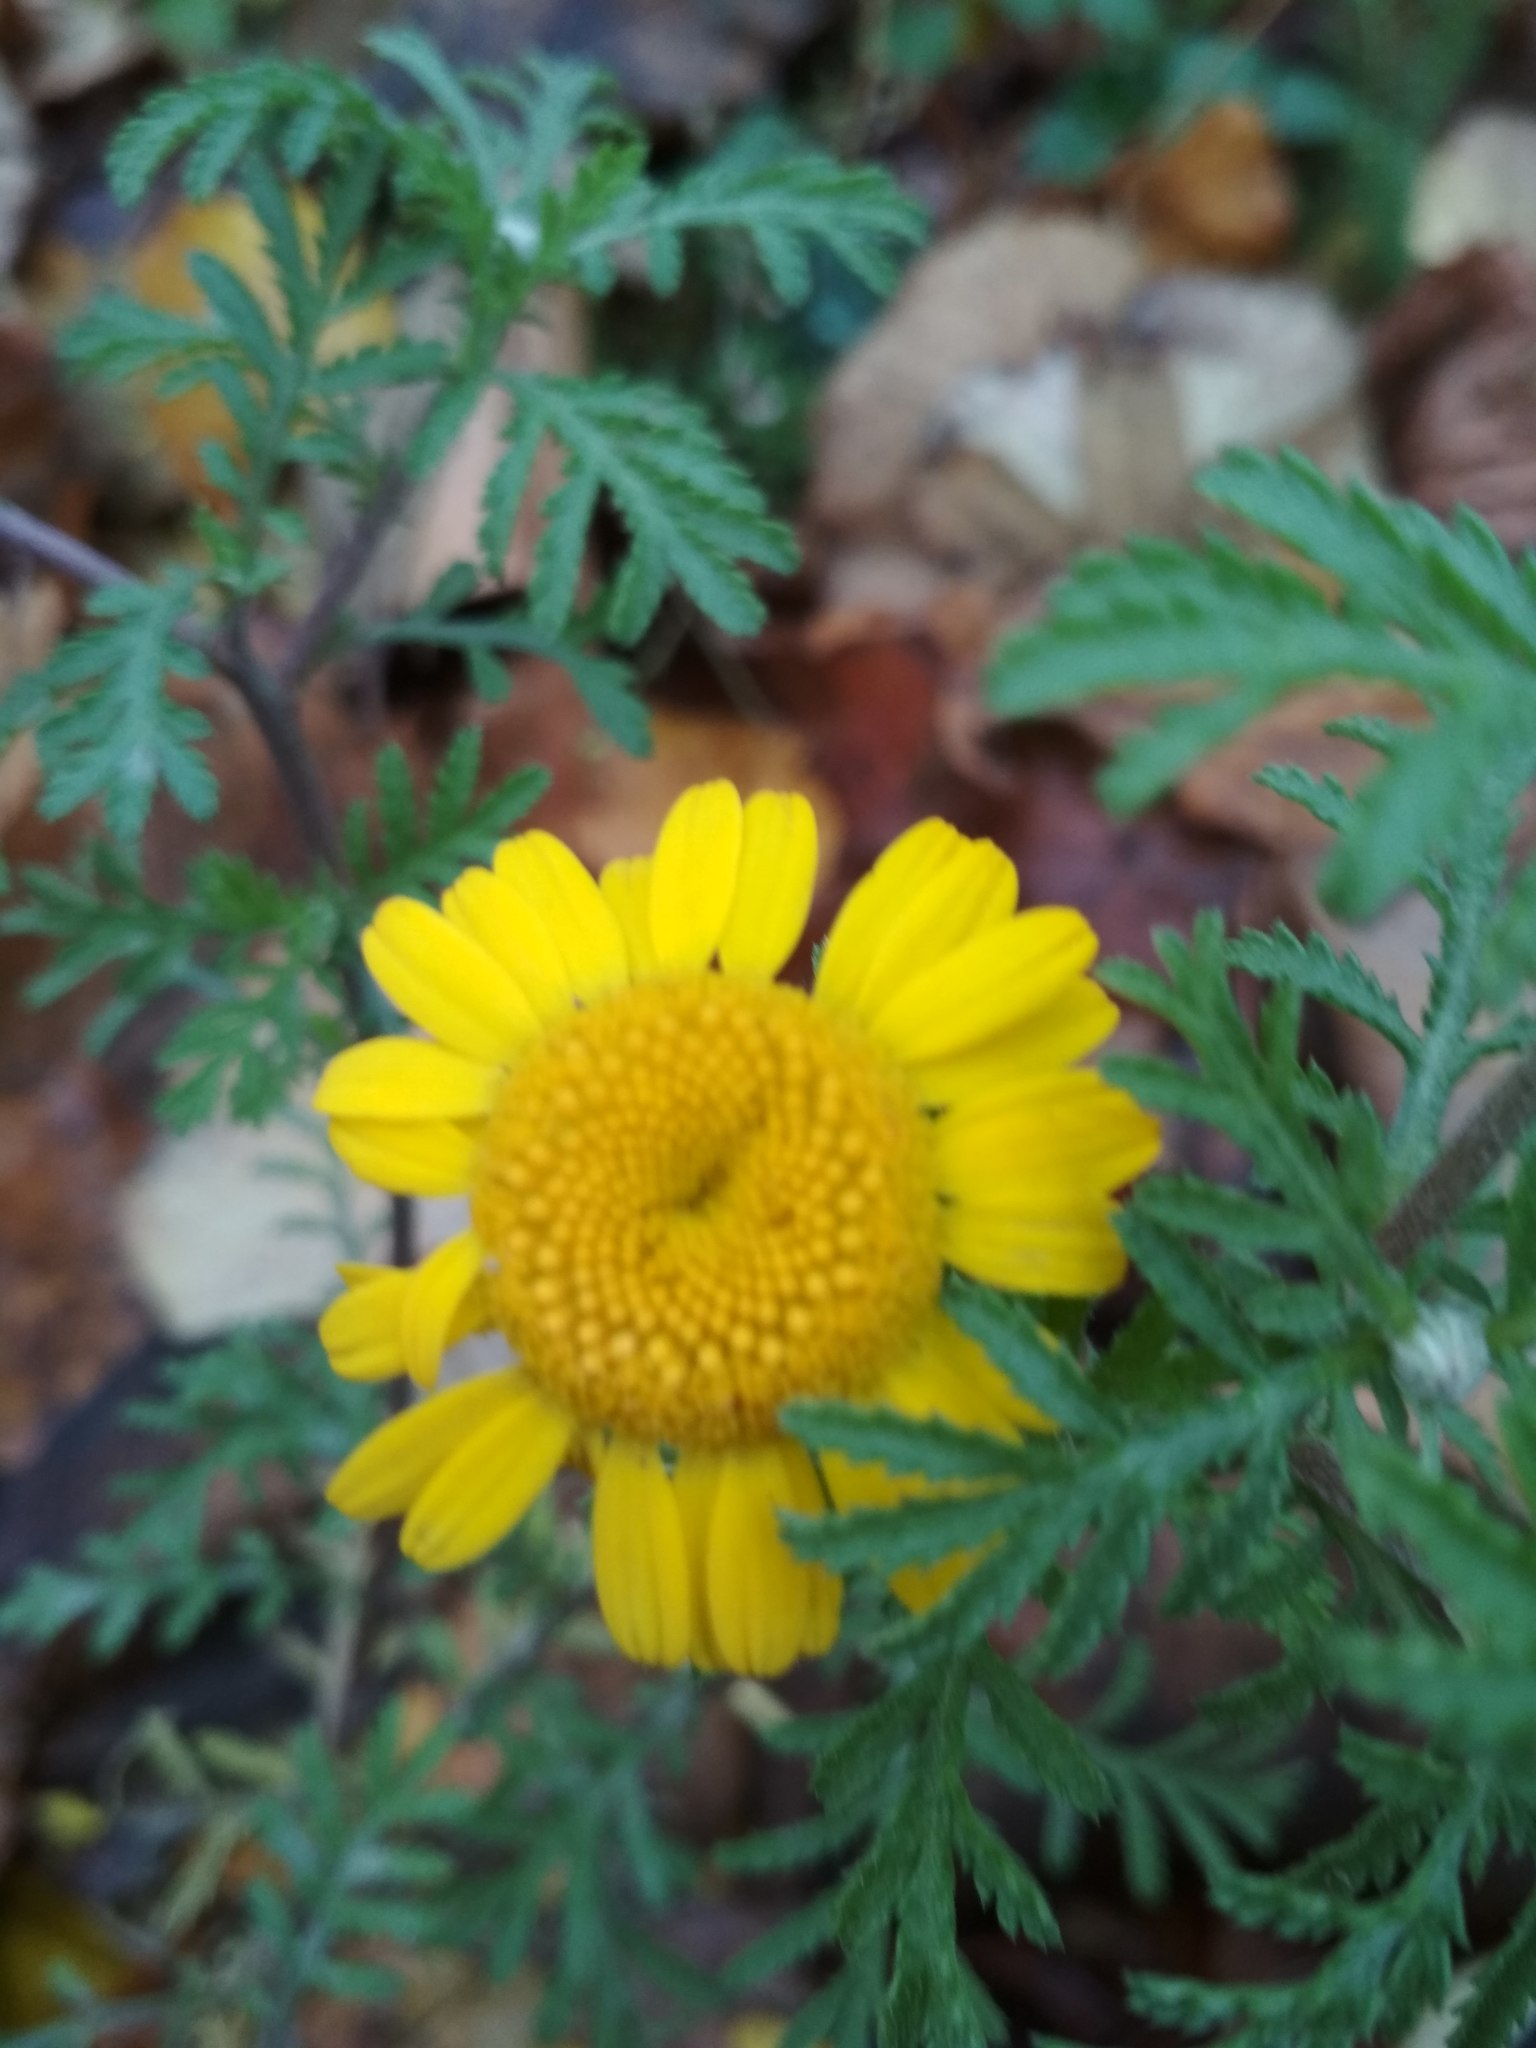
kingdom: Plantae
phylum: Tracheophyta
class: Magnoliopsida
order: Asterales
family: Asteraceae
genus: Cota
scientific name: Cota tinctoria
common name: Golden chamomile
